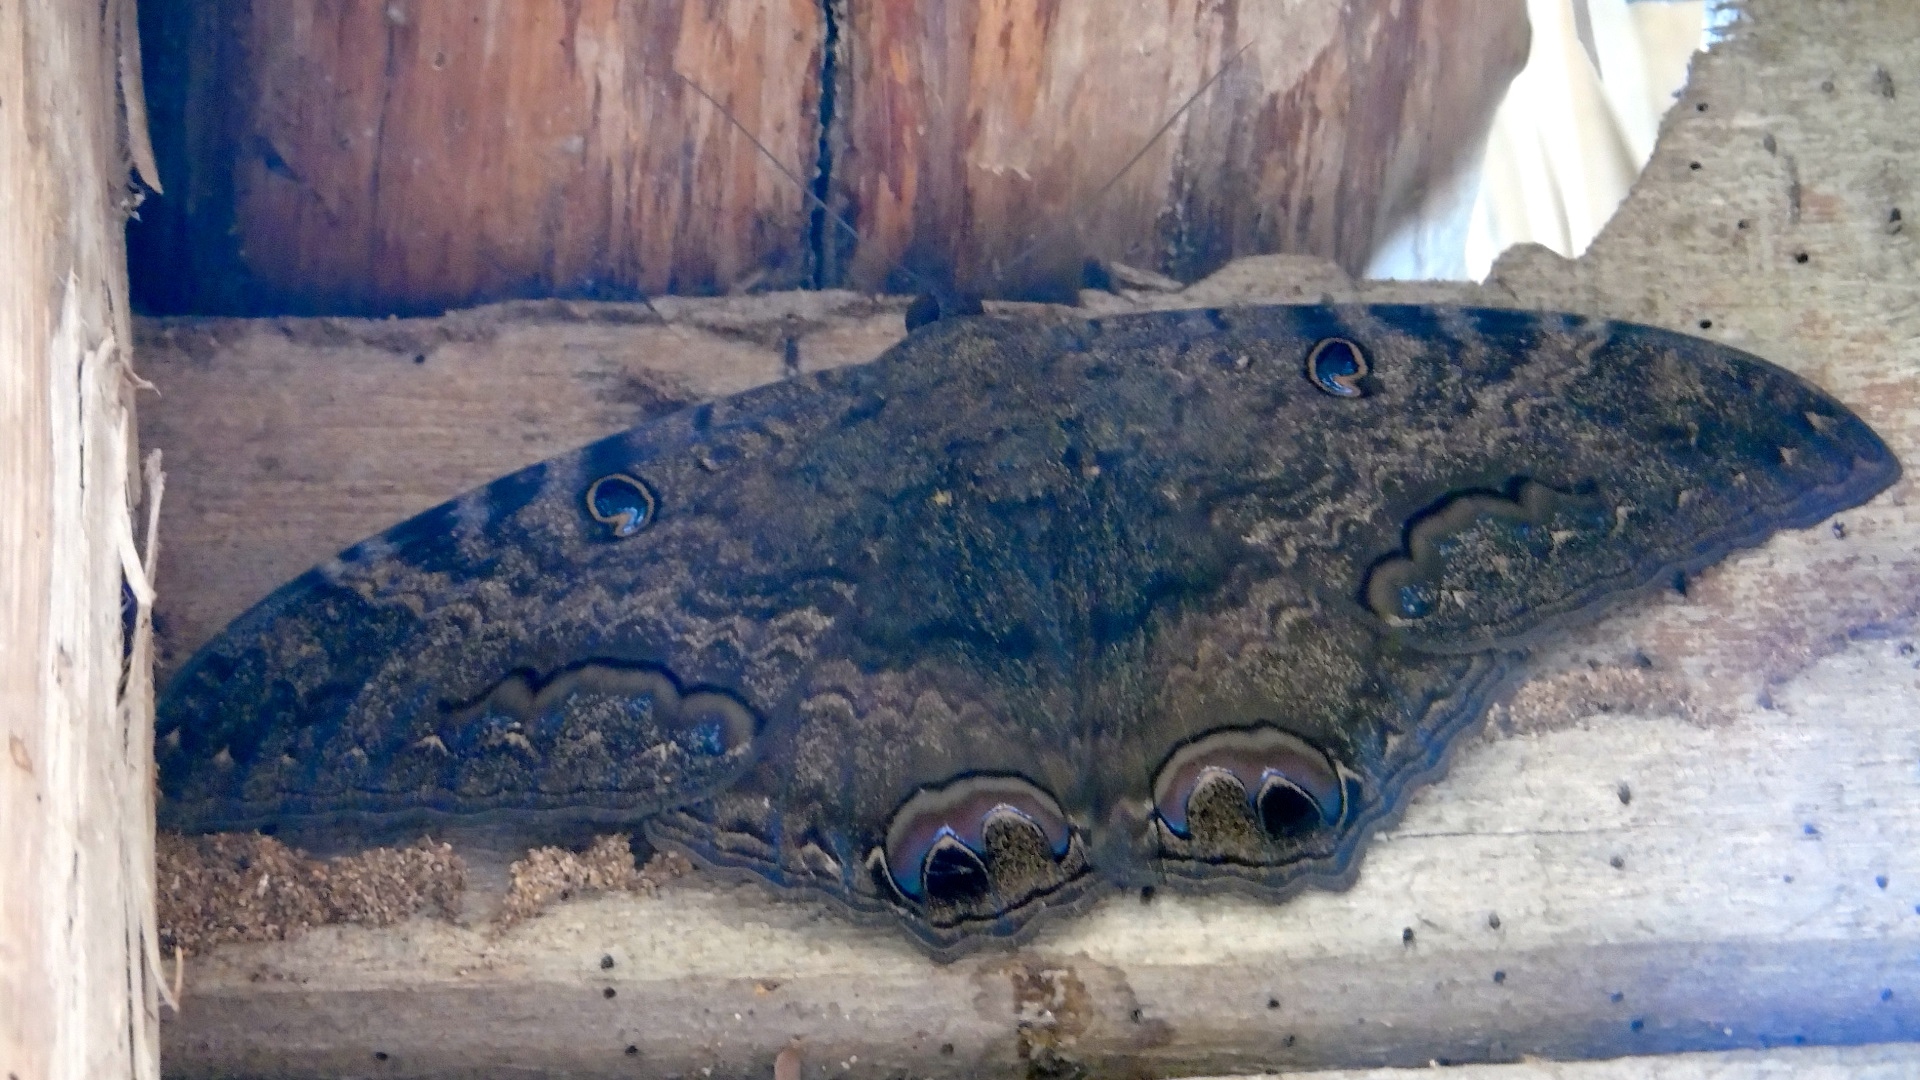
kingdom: Animalia
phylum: Arthropoda
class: Insecta
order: Lepidoptera
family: Erebidae
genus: Ascalapha
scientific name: Ascalapha odorata
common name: Black witch
